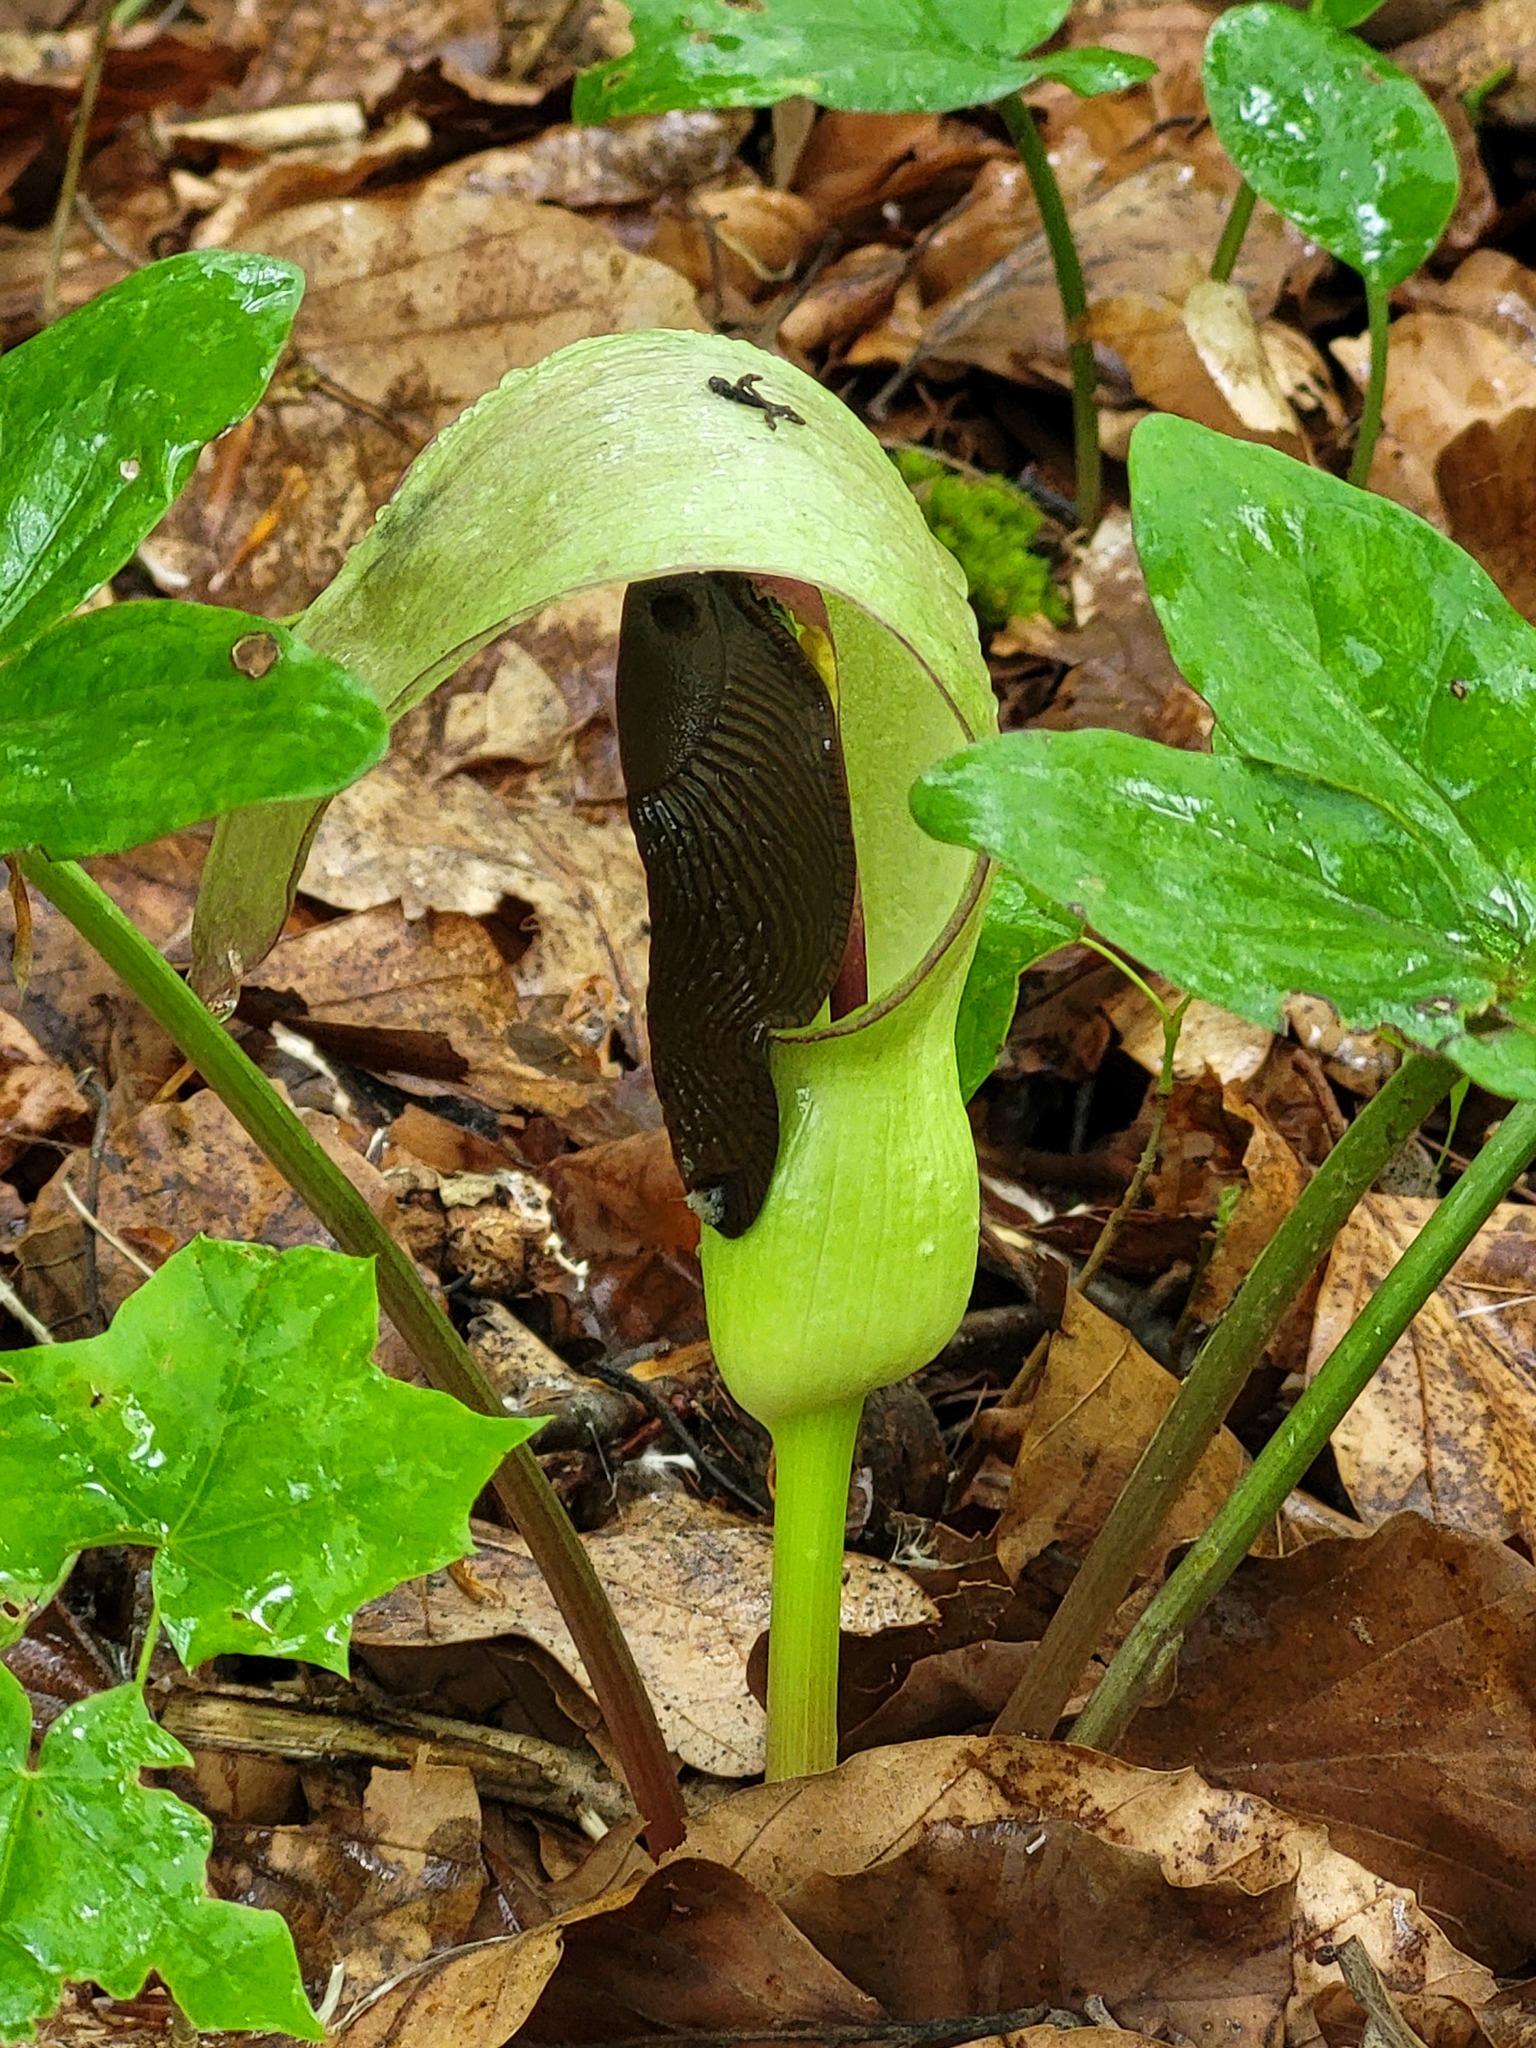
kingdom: Plantae
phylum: Tracheophyta
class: Liliopsida
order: Alismatales
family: Araceae
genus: Arum
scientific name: Arum maculatum
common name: Lords-and-ladies
